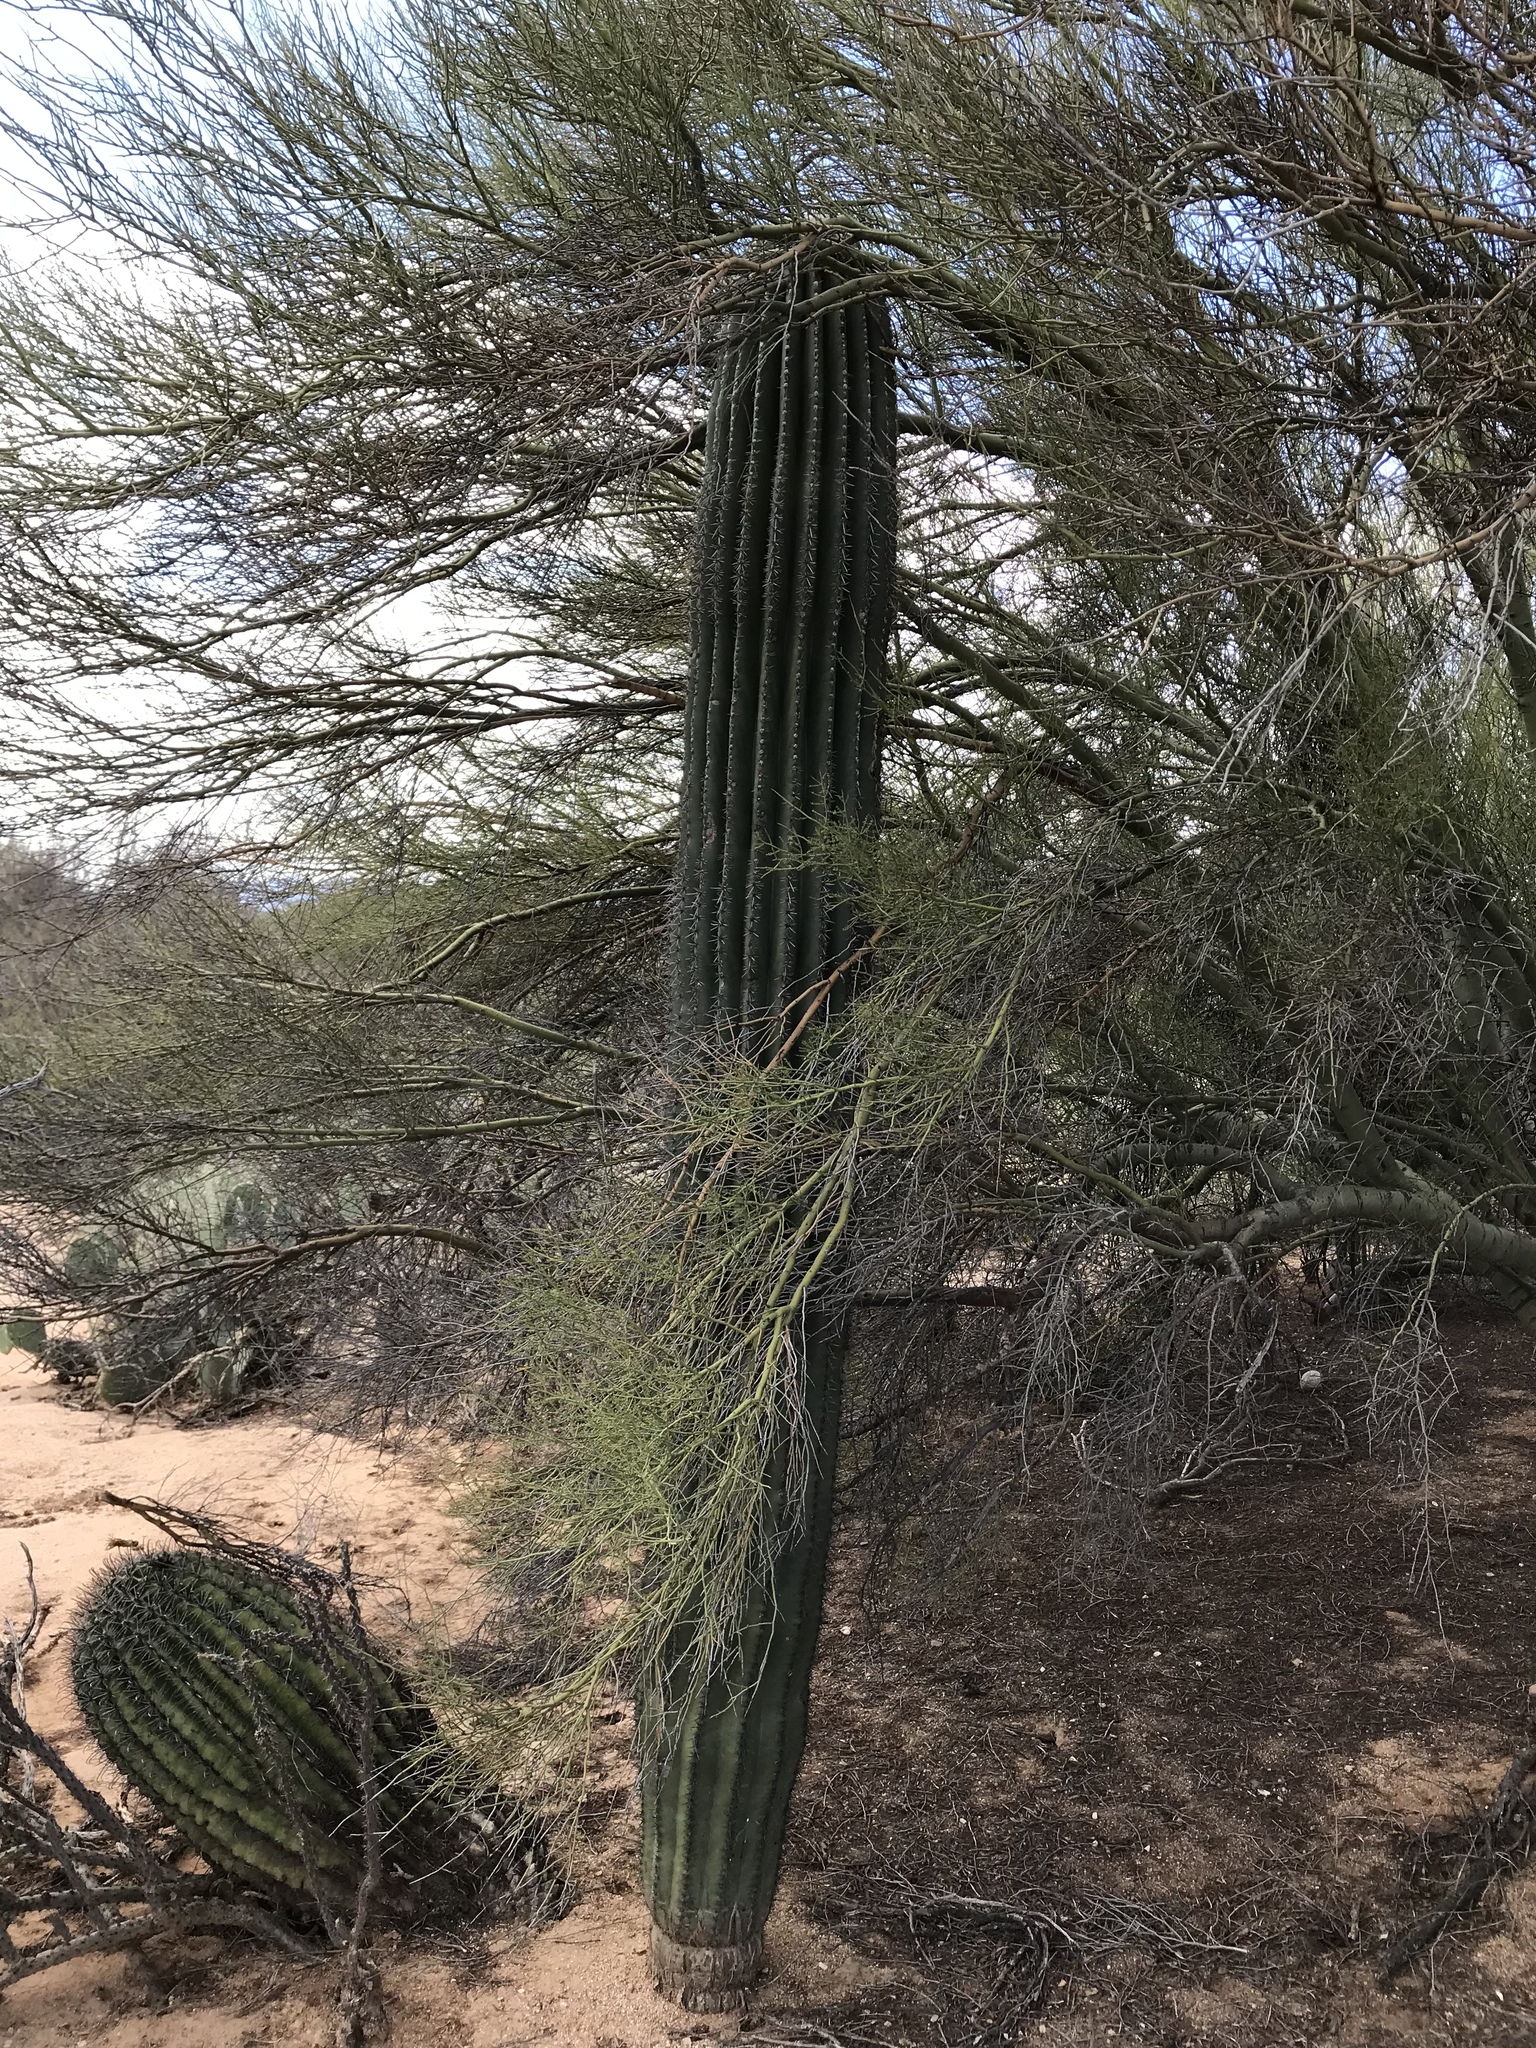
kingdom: Plantae
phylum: Tracheophyta
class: Magnoliopsida
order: Caryophyllales
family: Cactaceae
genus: Carnegiea
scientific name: Carnegiea gigantea
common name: Saguaro
